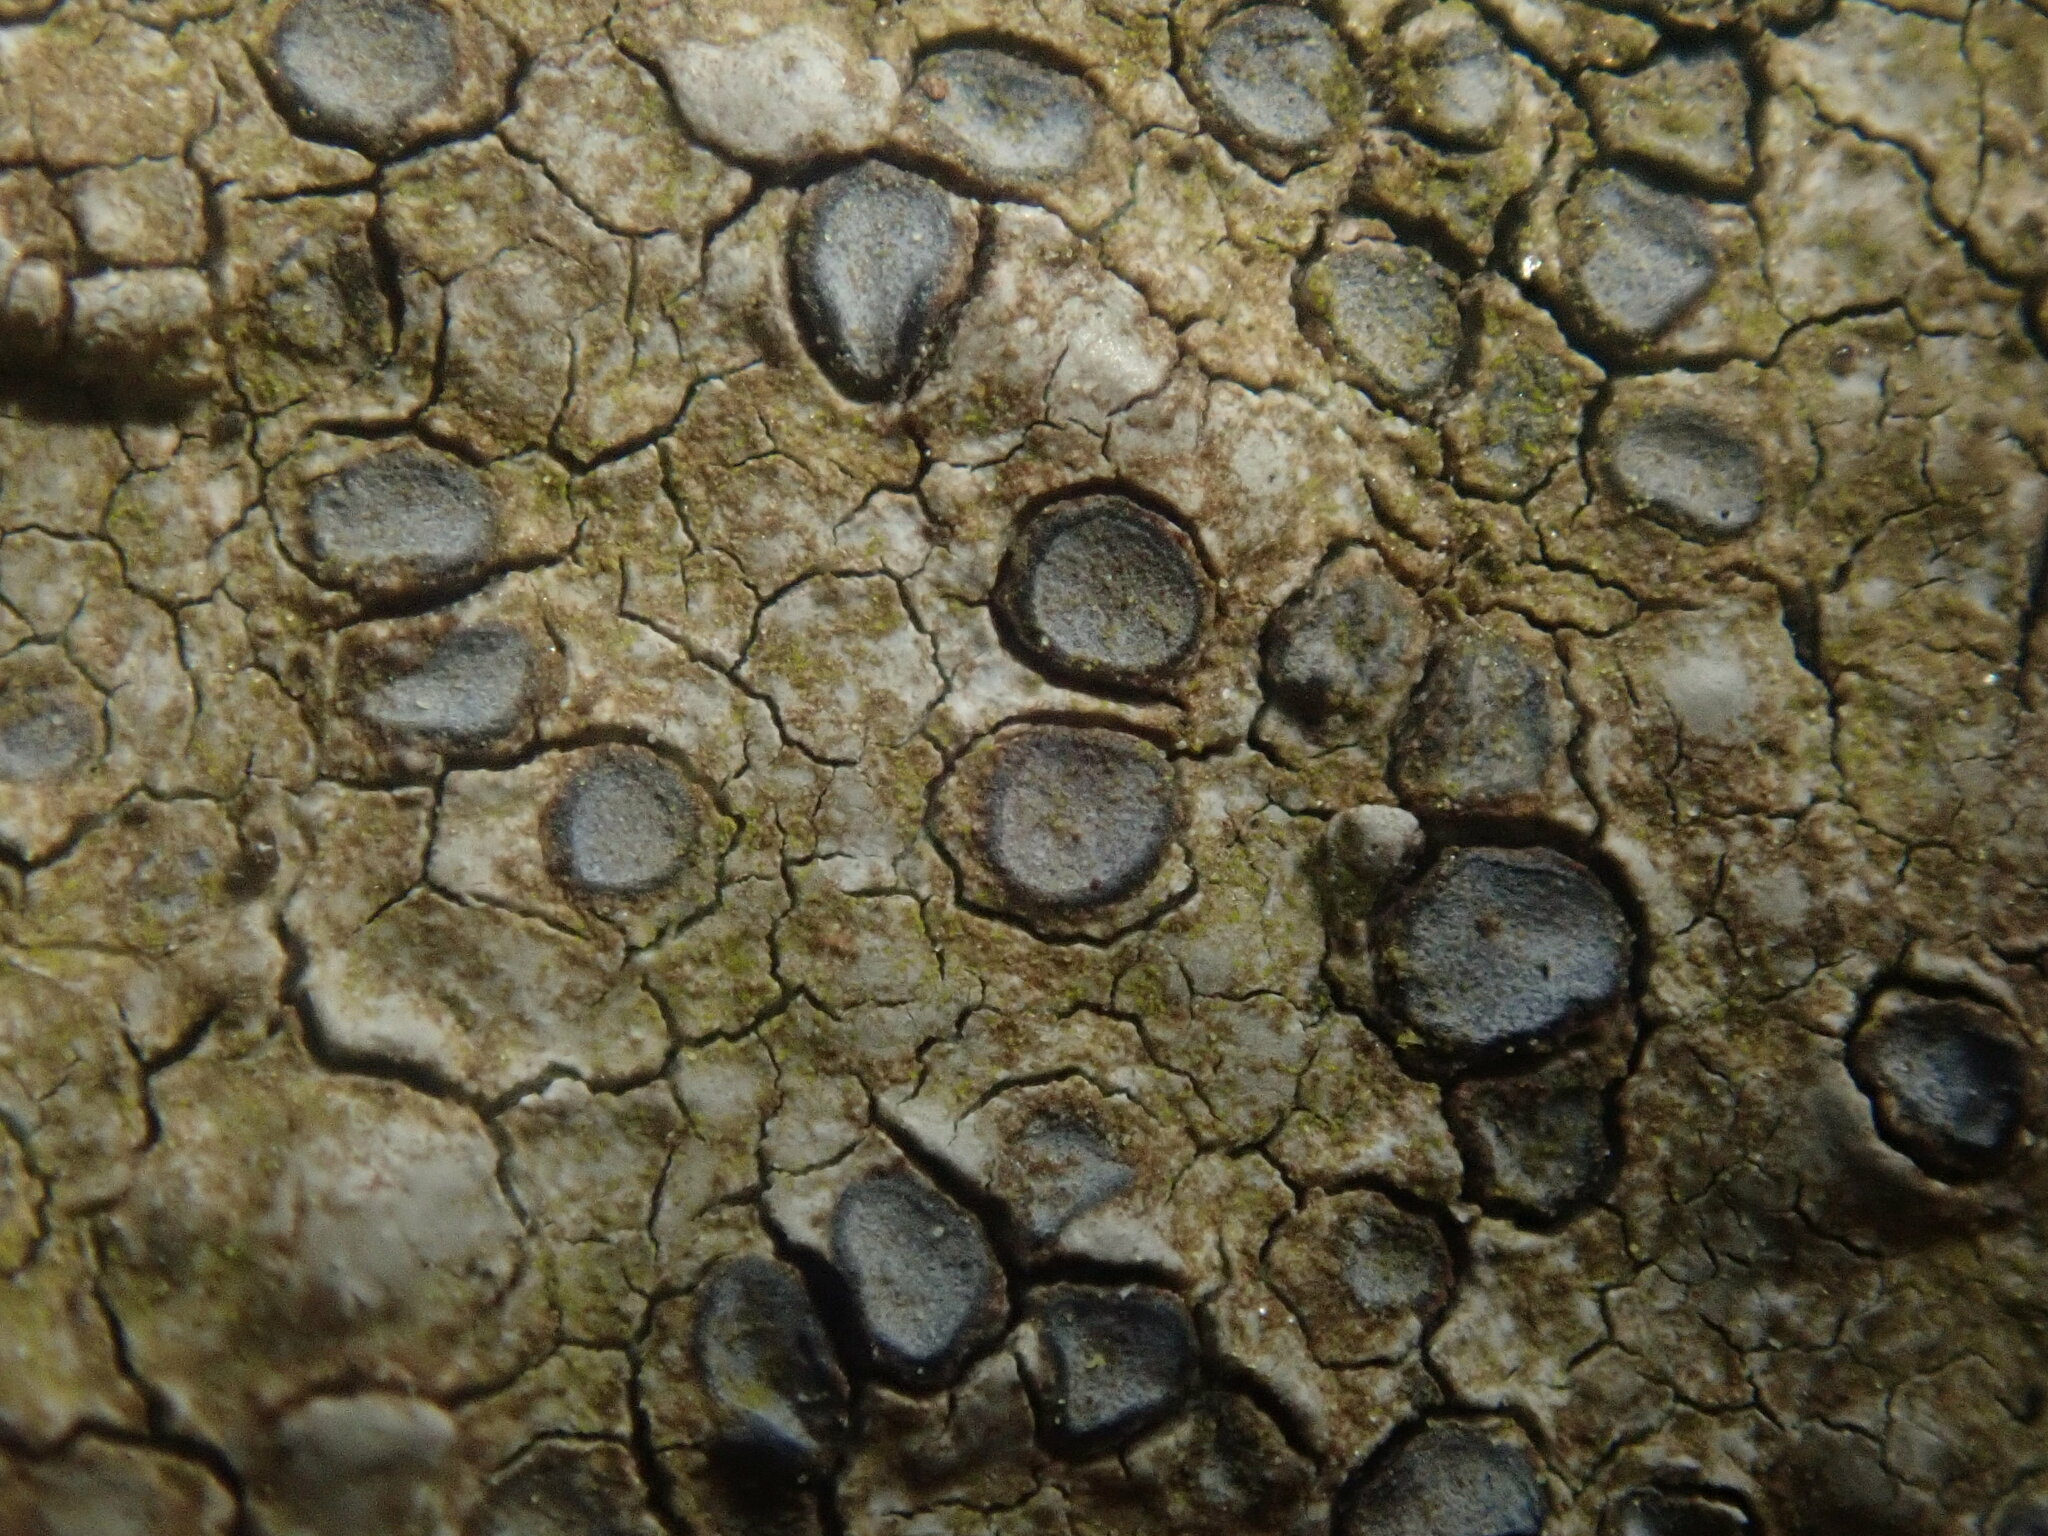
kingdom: Fungi
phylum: Ascomycota
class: Lecanoromycetes
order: Lecideales
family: Lecideaceae
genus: Porpidia
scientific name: Porpidia albocaerulescens
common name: Smokey-eyed boulder lichen
